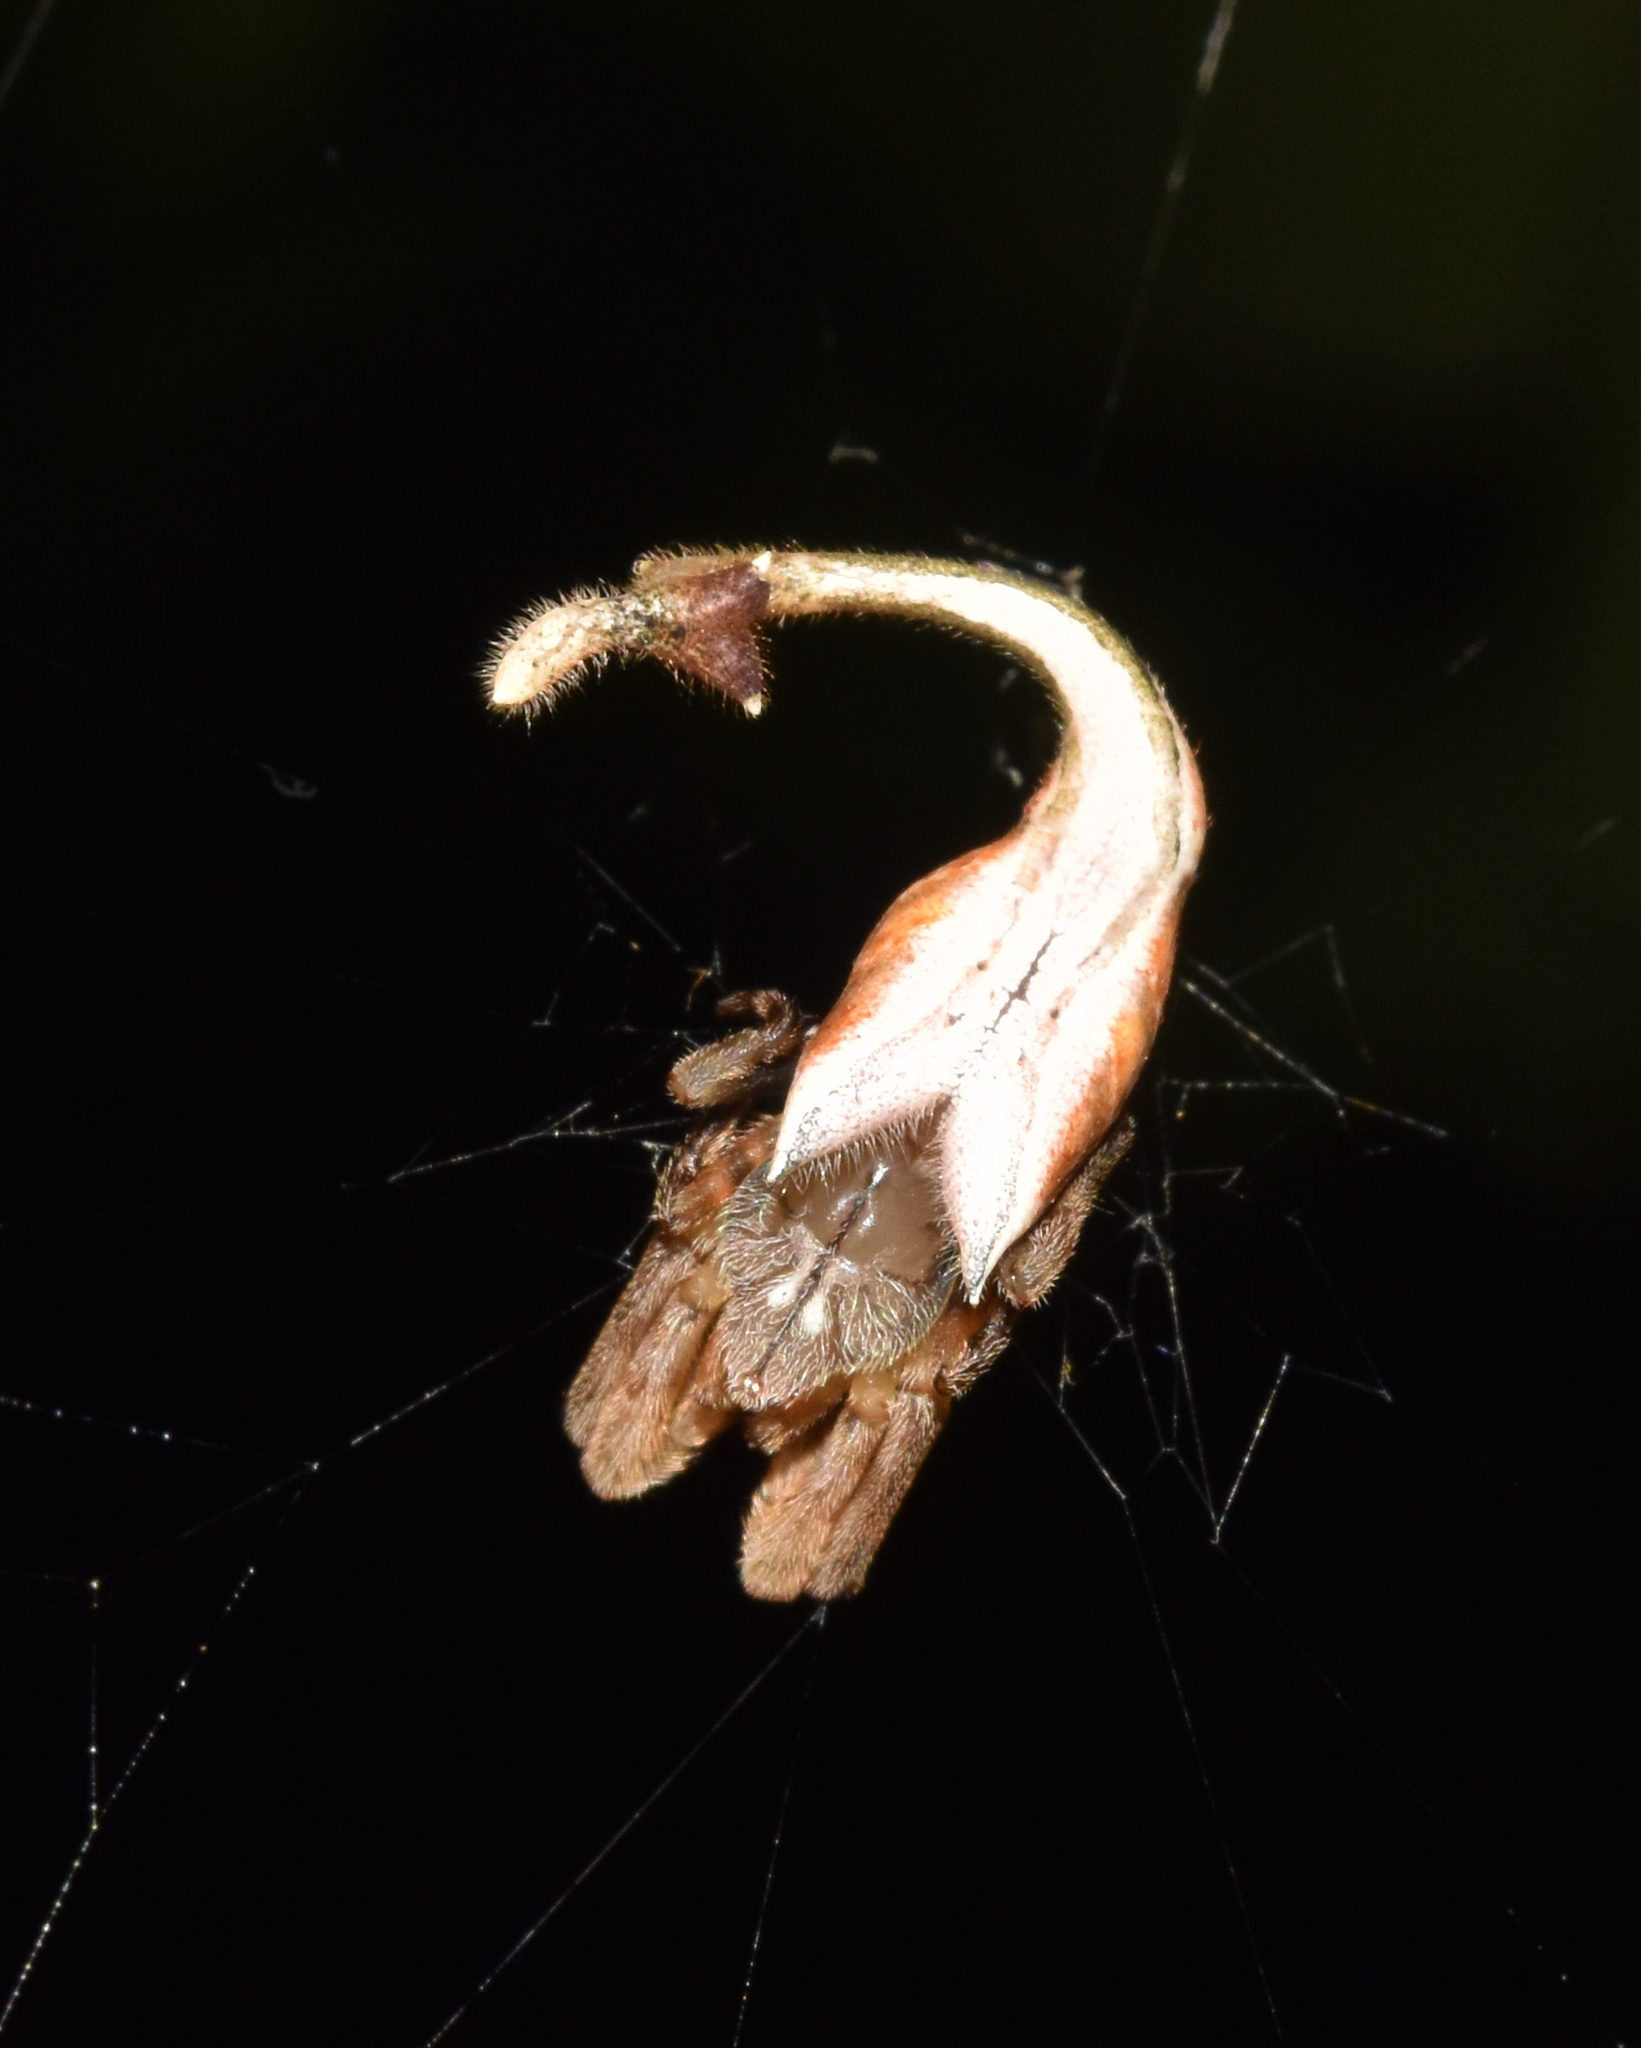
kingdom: Animalia
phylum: Arthropoda
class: Arachnida
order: Araneae
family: Araneidae
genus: Arachnura
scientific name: Arachnura scorpionoides
